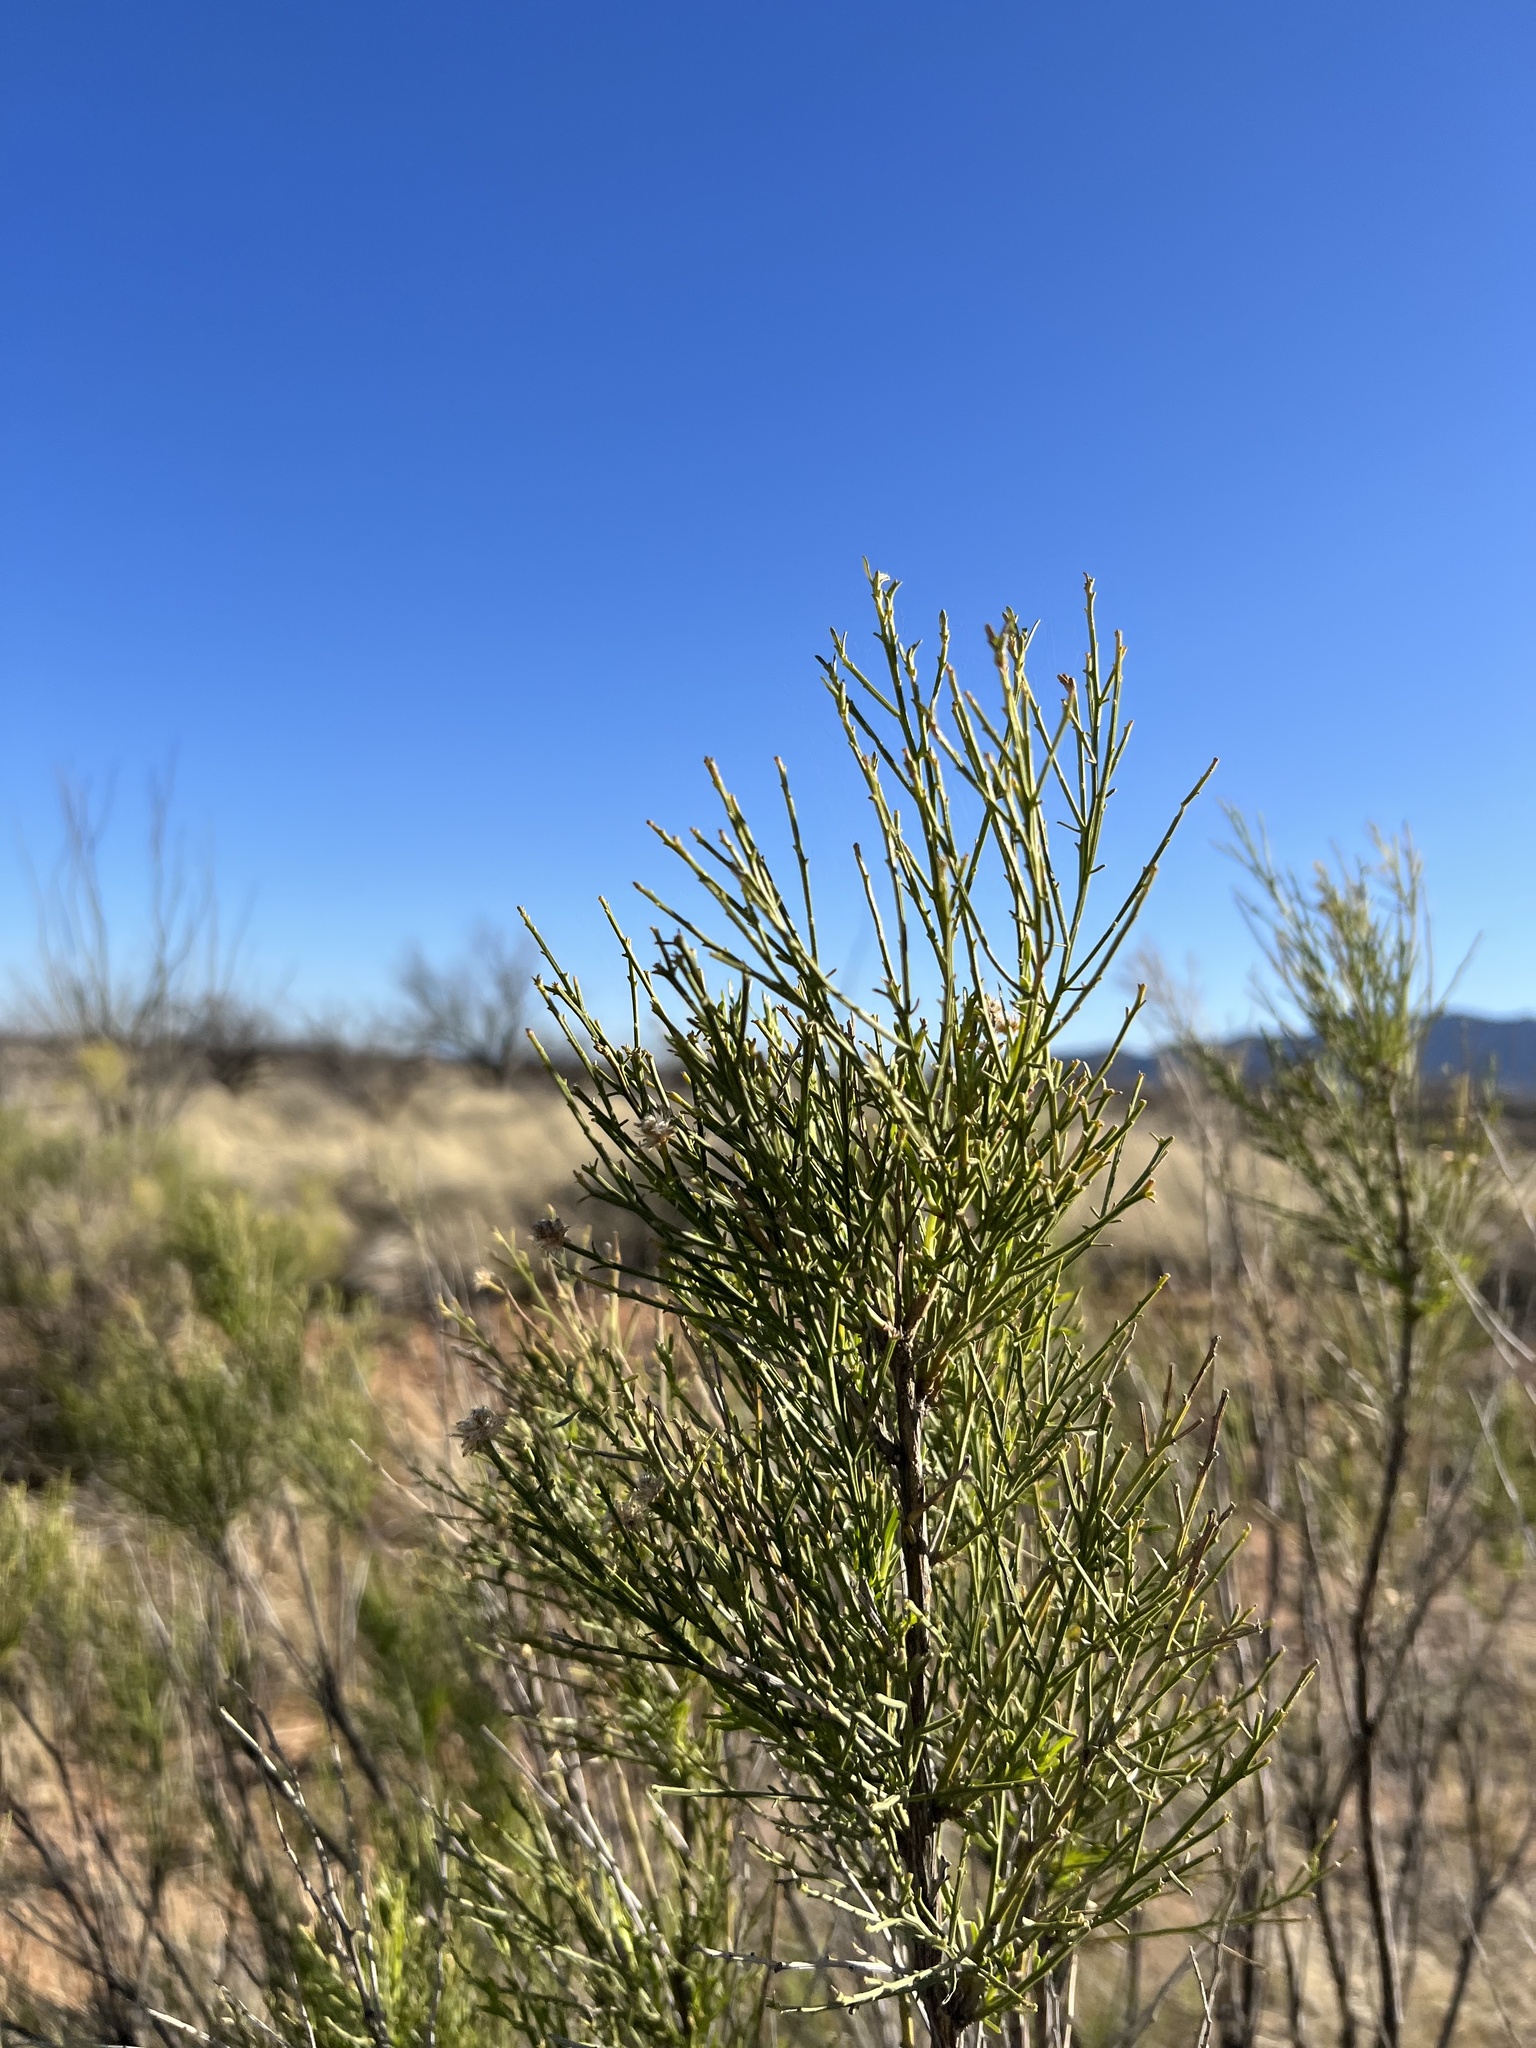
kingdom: Plantae
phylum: Tracheophyta
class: Magnoliopsida
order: Asterales
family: Asteraceae
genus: Baccharis
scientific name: Baccharis sarothroides
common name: Desert-broom
